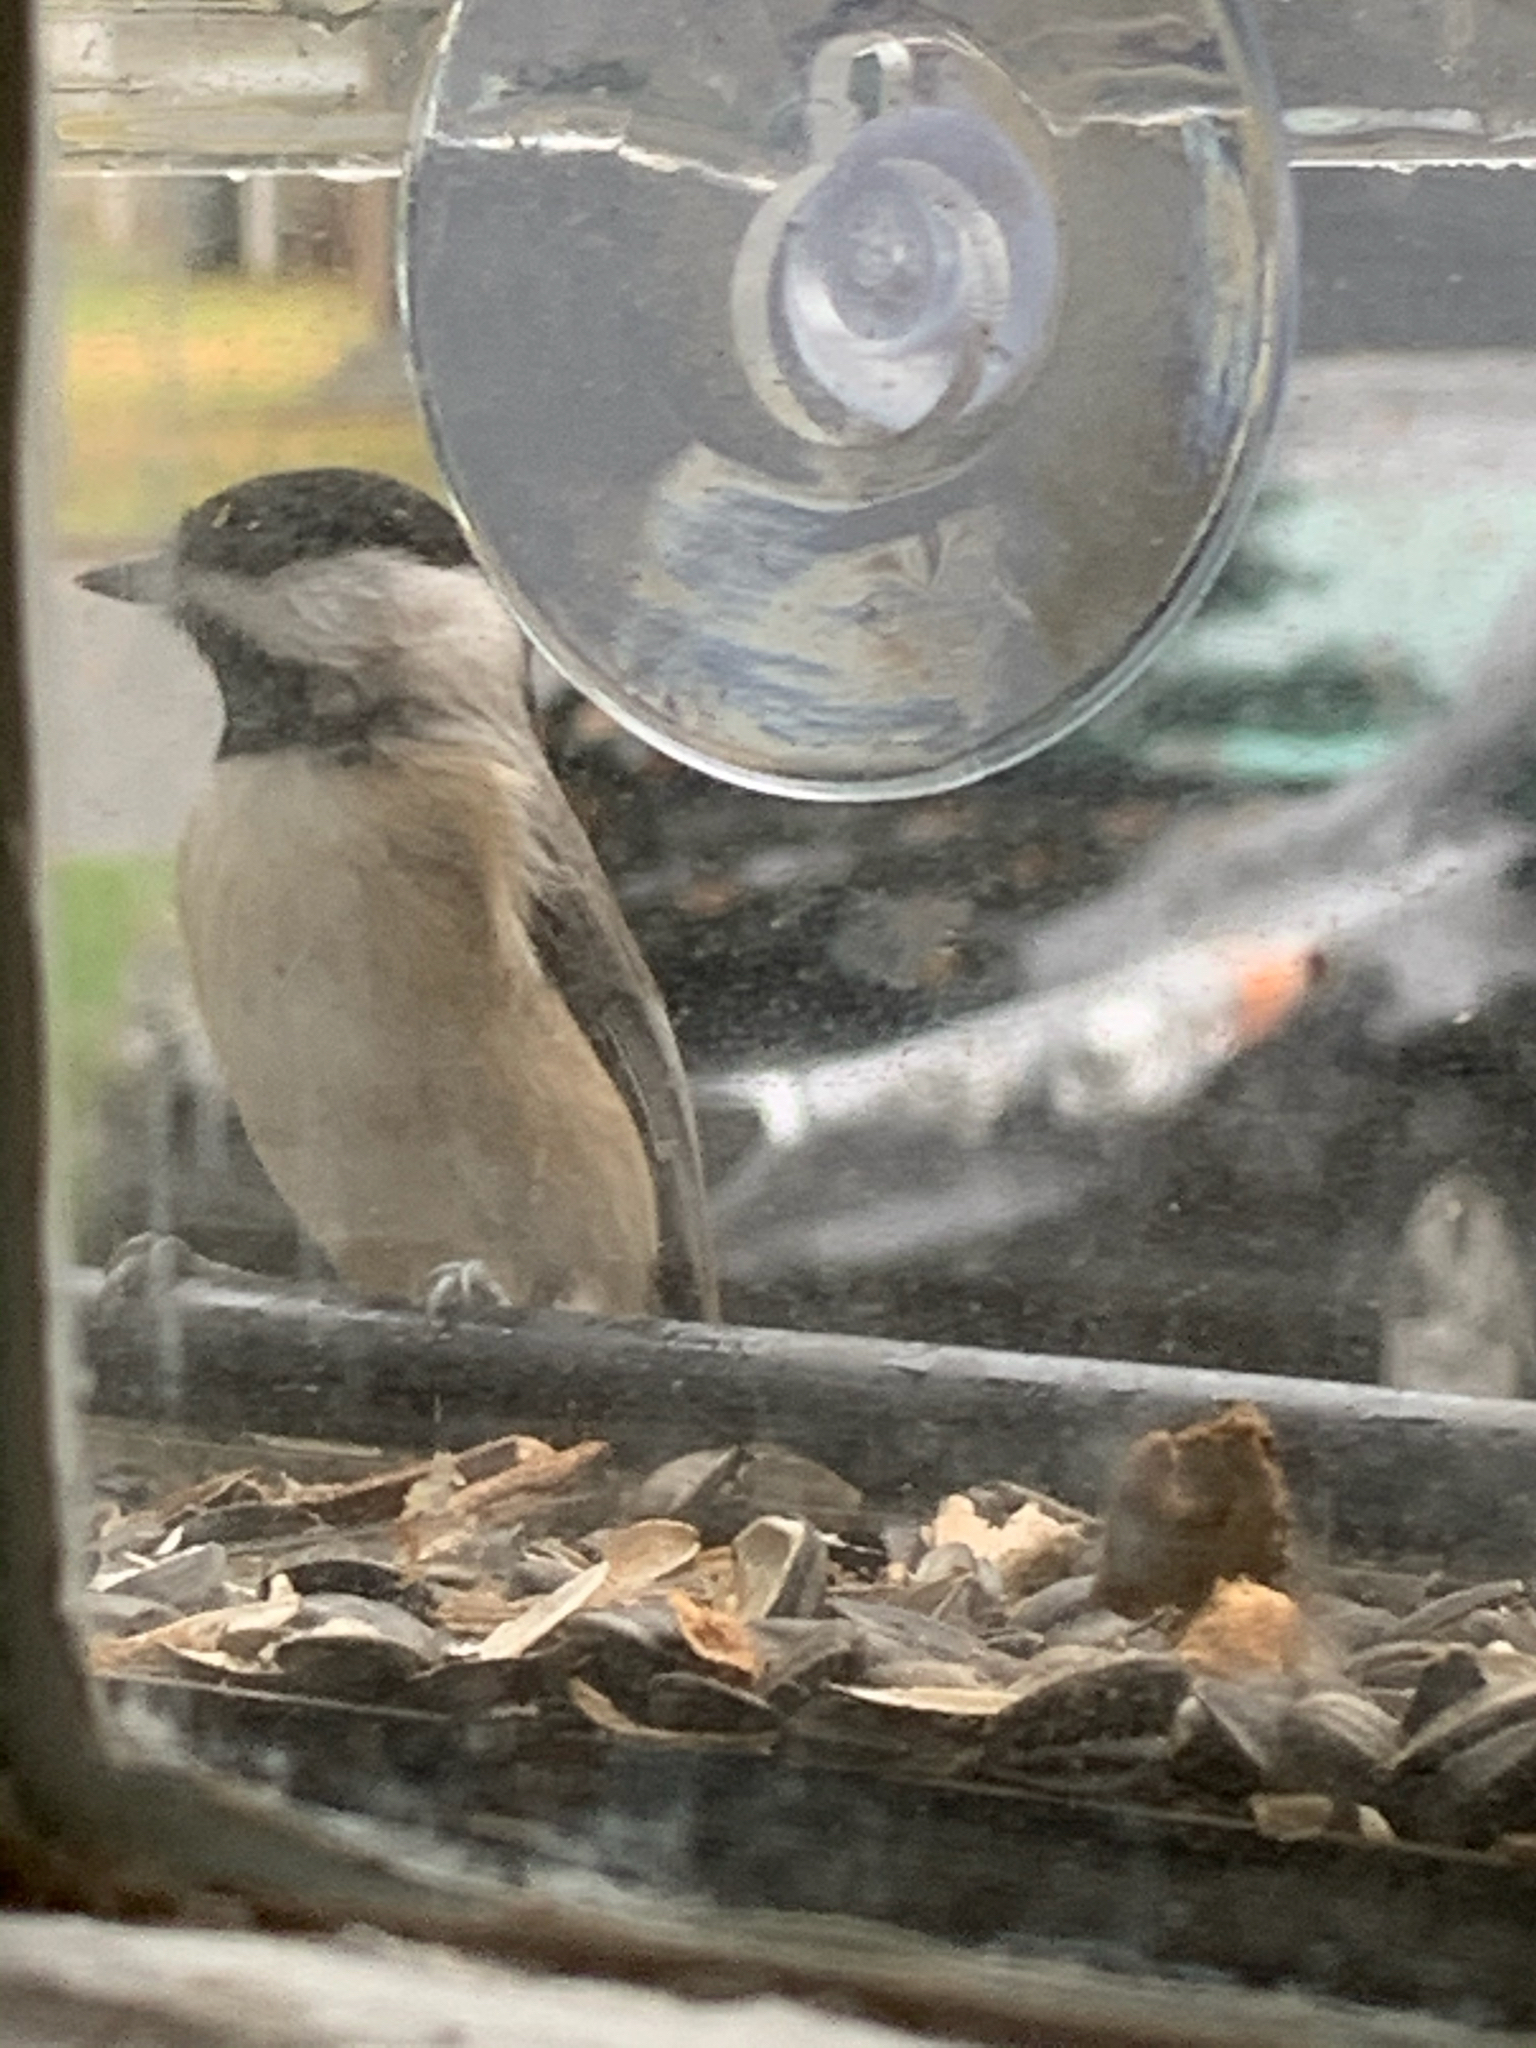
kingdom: Animalia
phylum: Chordata
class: Aves
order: Passeriformes
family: Paridae
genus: Poecile
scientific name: Poecile carolinensis
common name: Carolina chickadee
